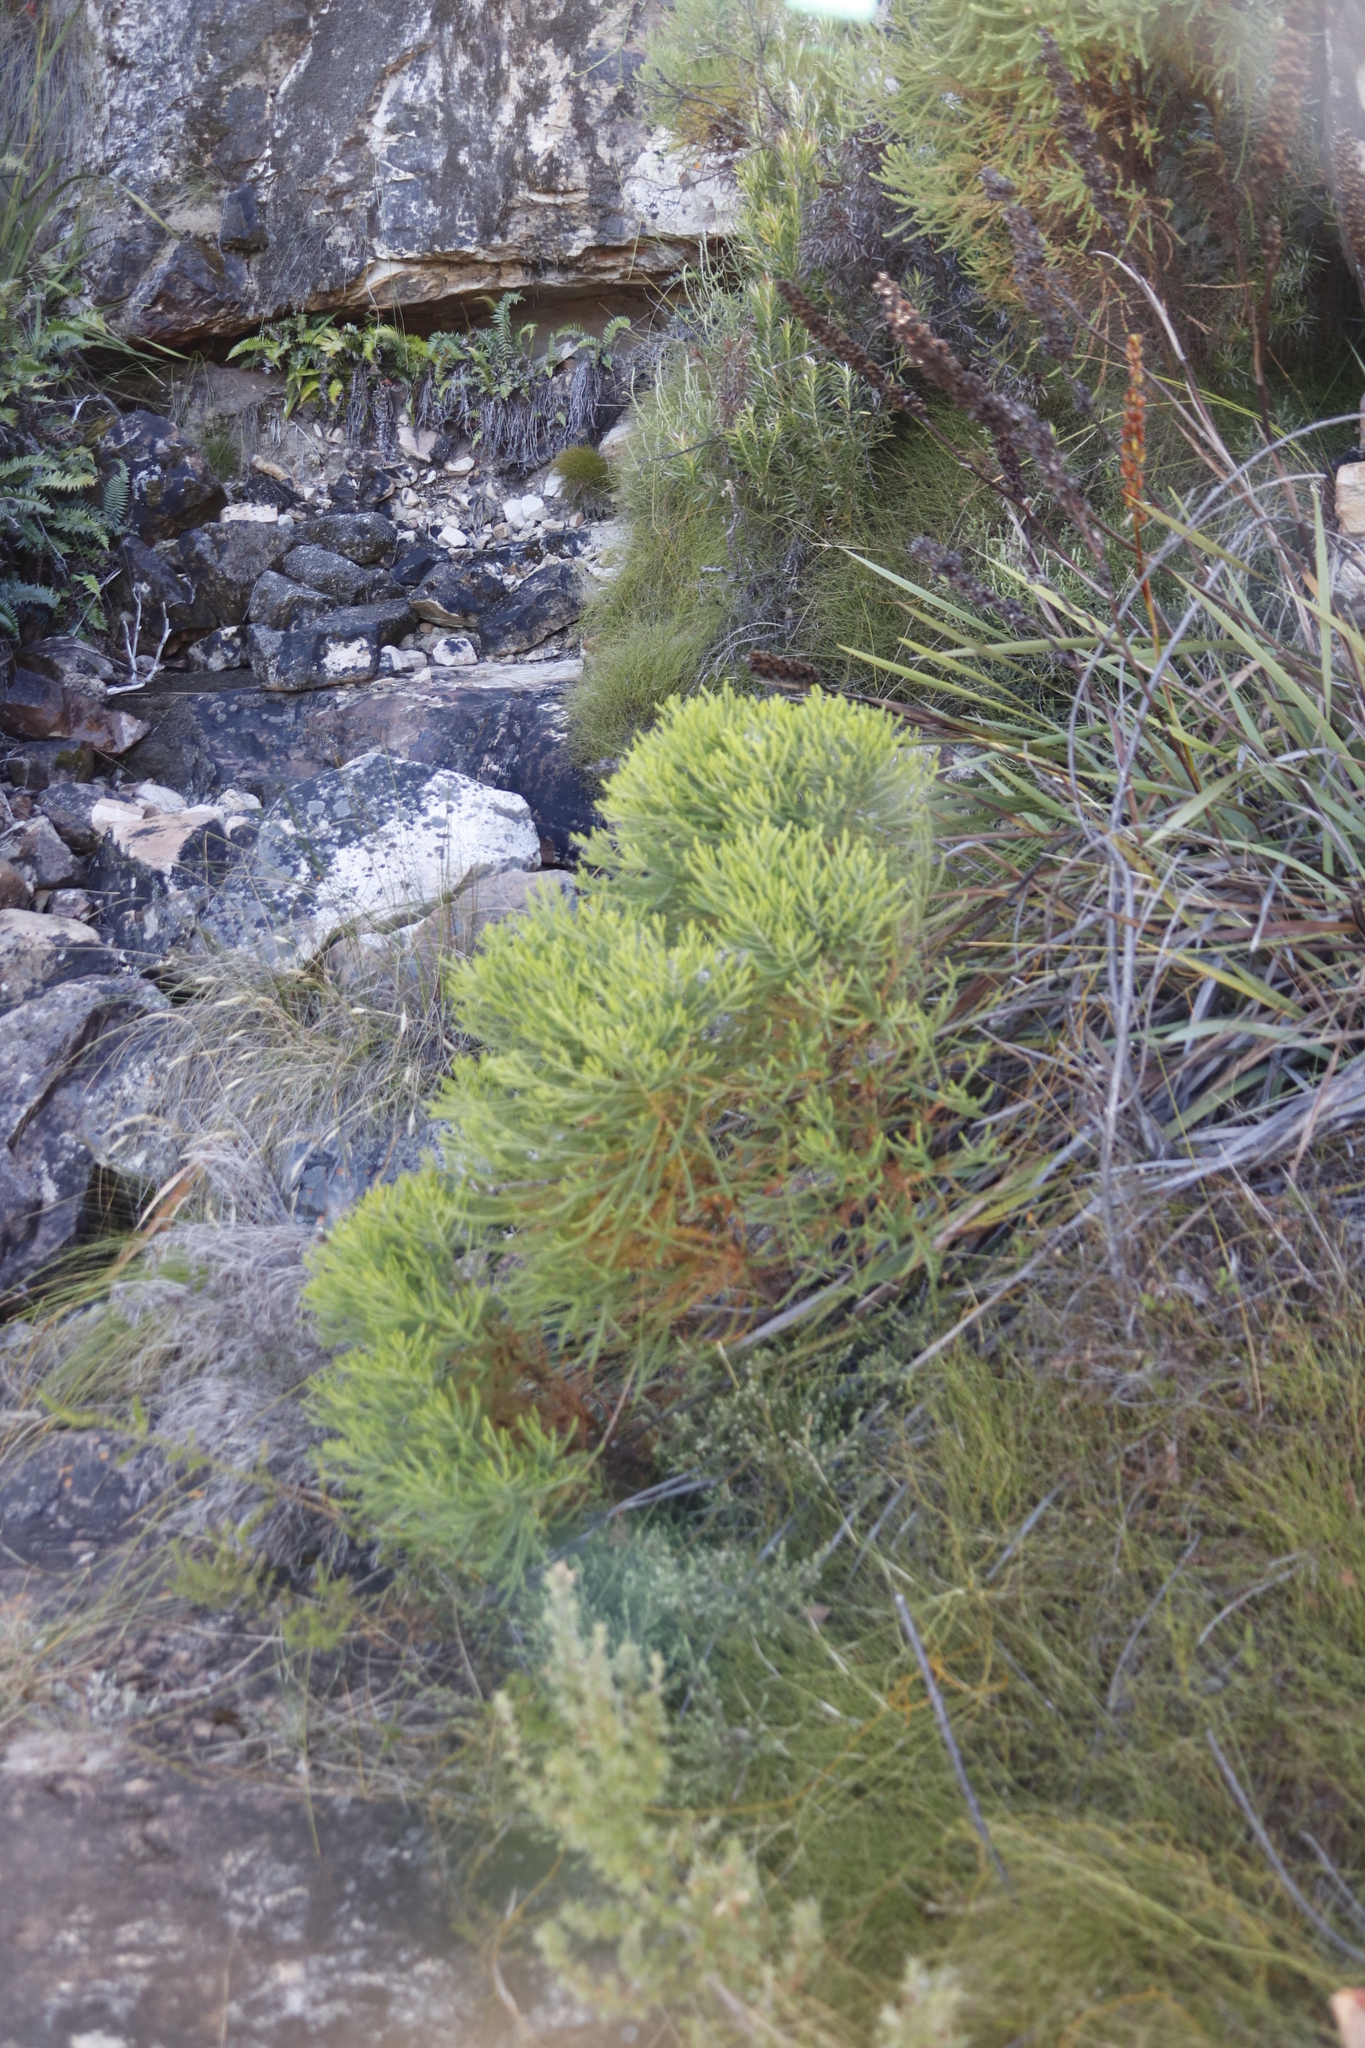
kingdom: Plantae
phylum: Tracheophyta
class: Magnoliopsida
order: Bruniales
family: Bruniaceae
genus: Berzelia
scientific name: Berzelia lanuginosa
